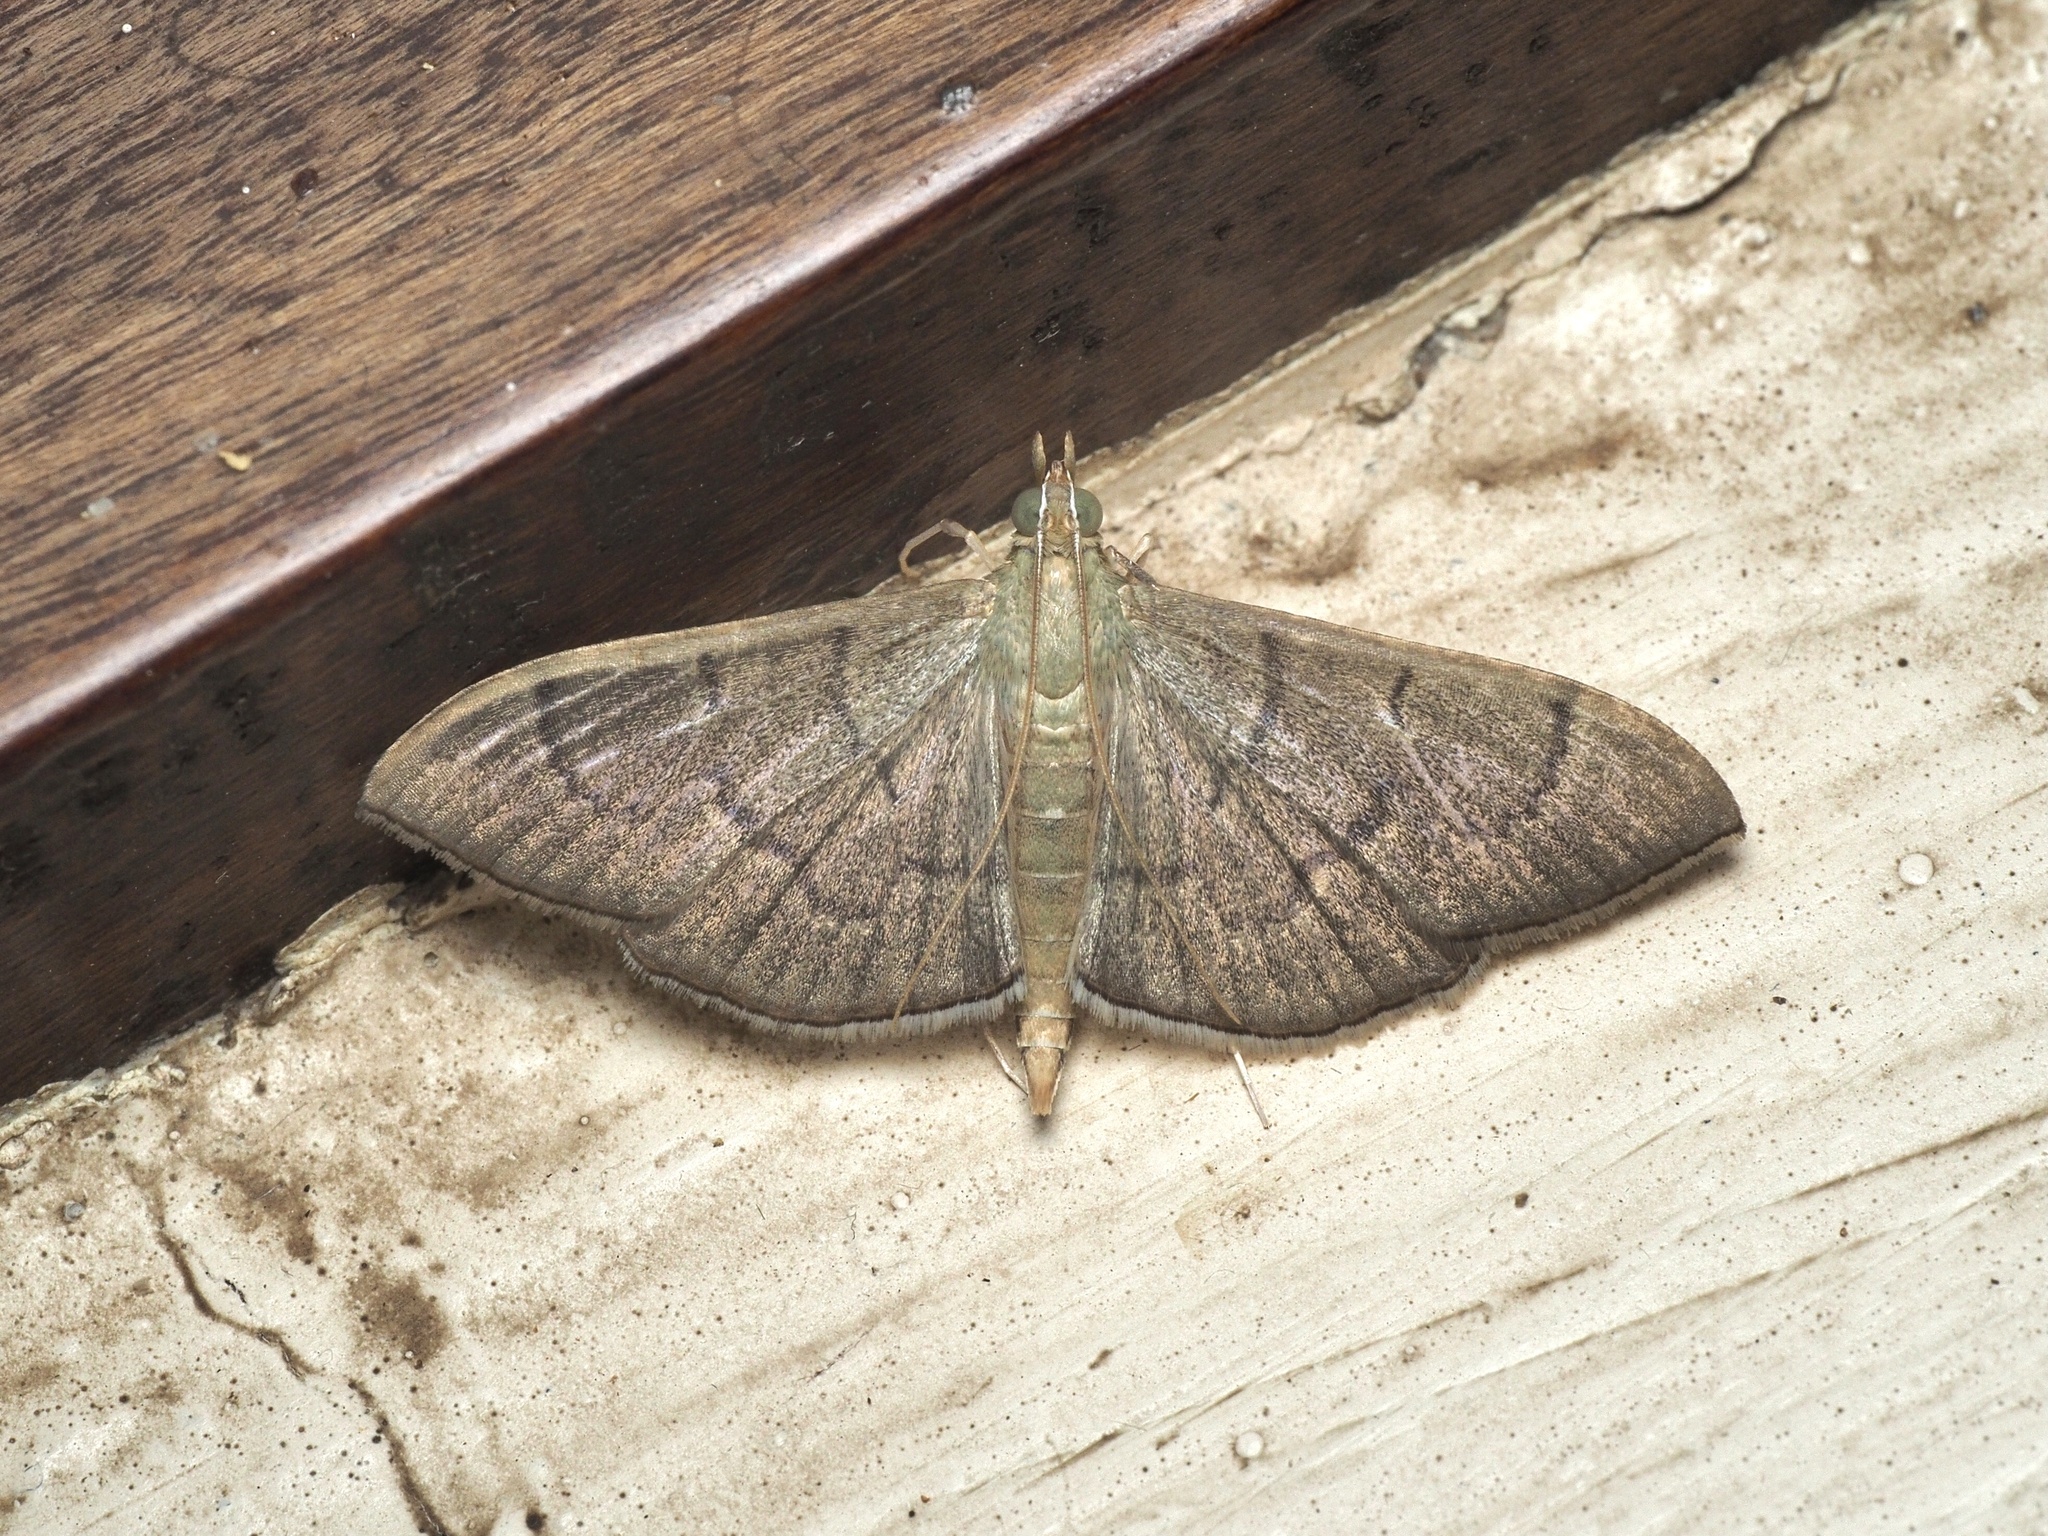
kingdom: Animalia
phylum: Arthropoda
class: Insecta
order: Lepidoptera
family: Crambidae
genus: Lamprophaia
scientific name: Lamprophaia ablactalis
